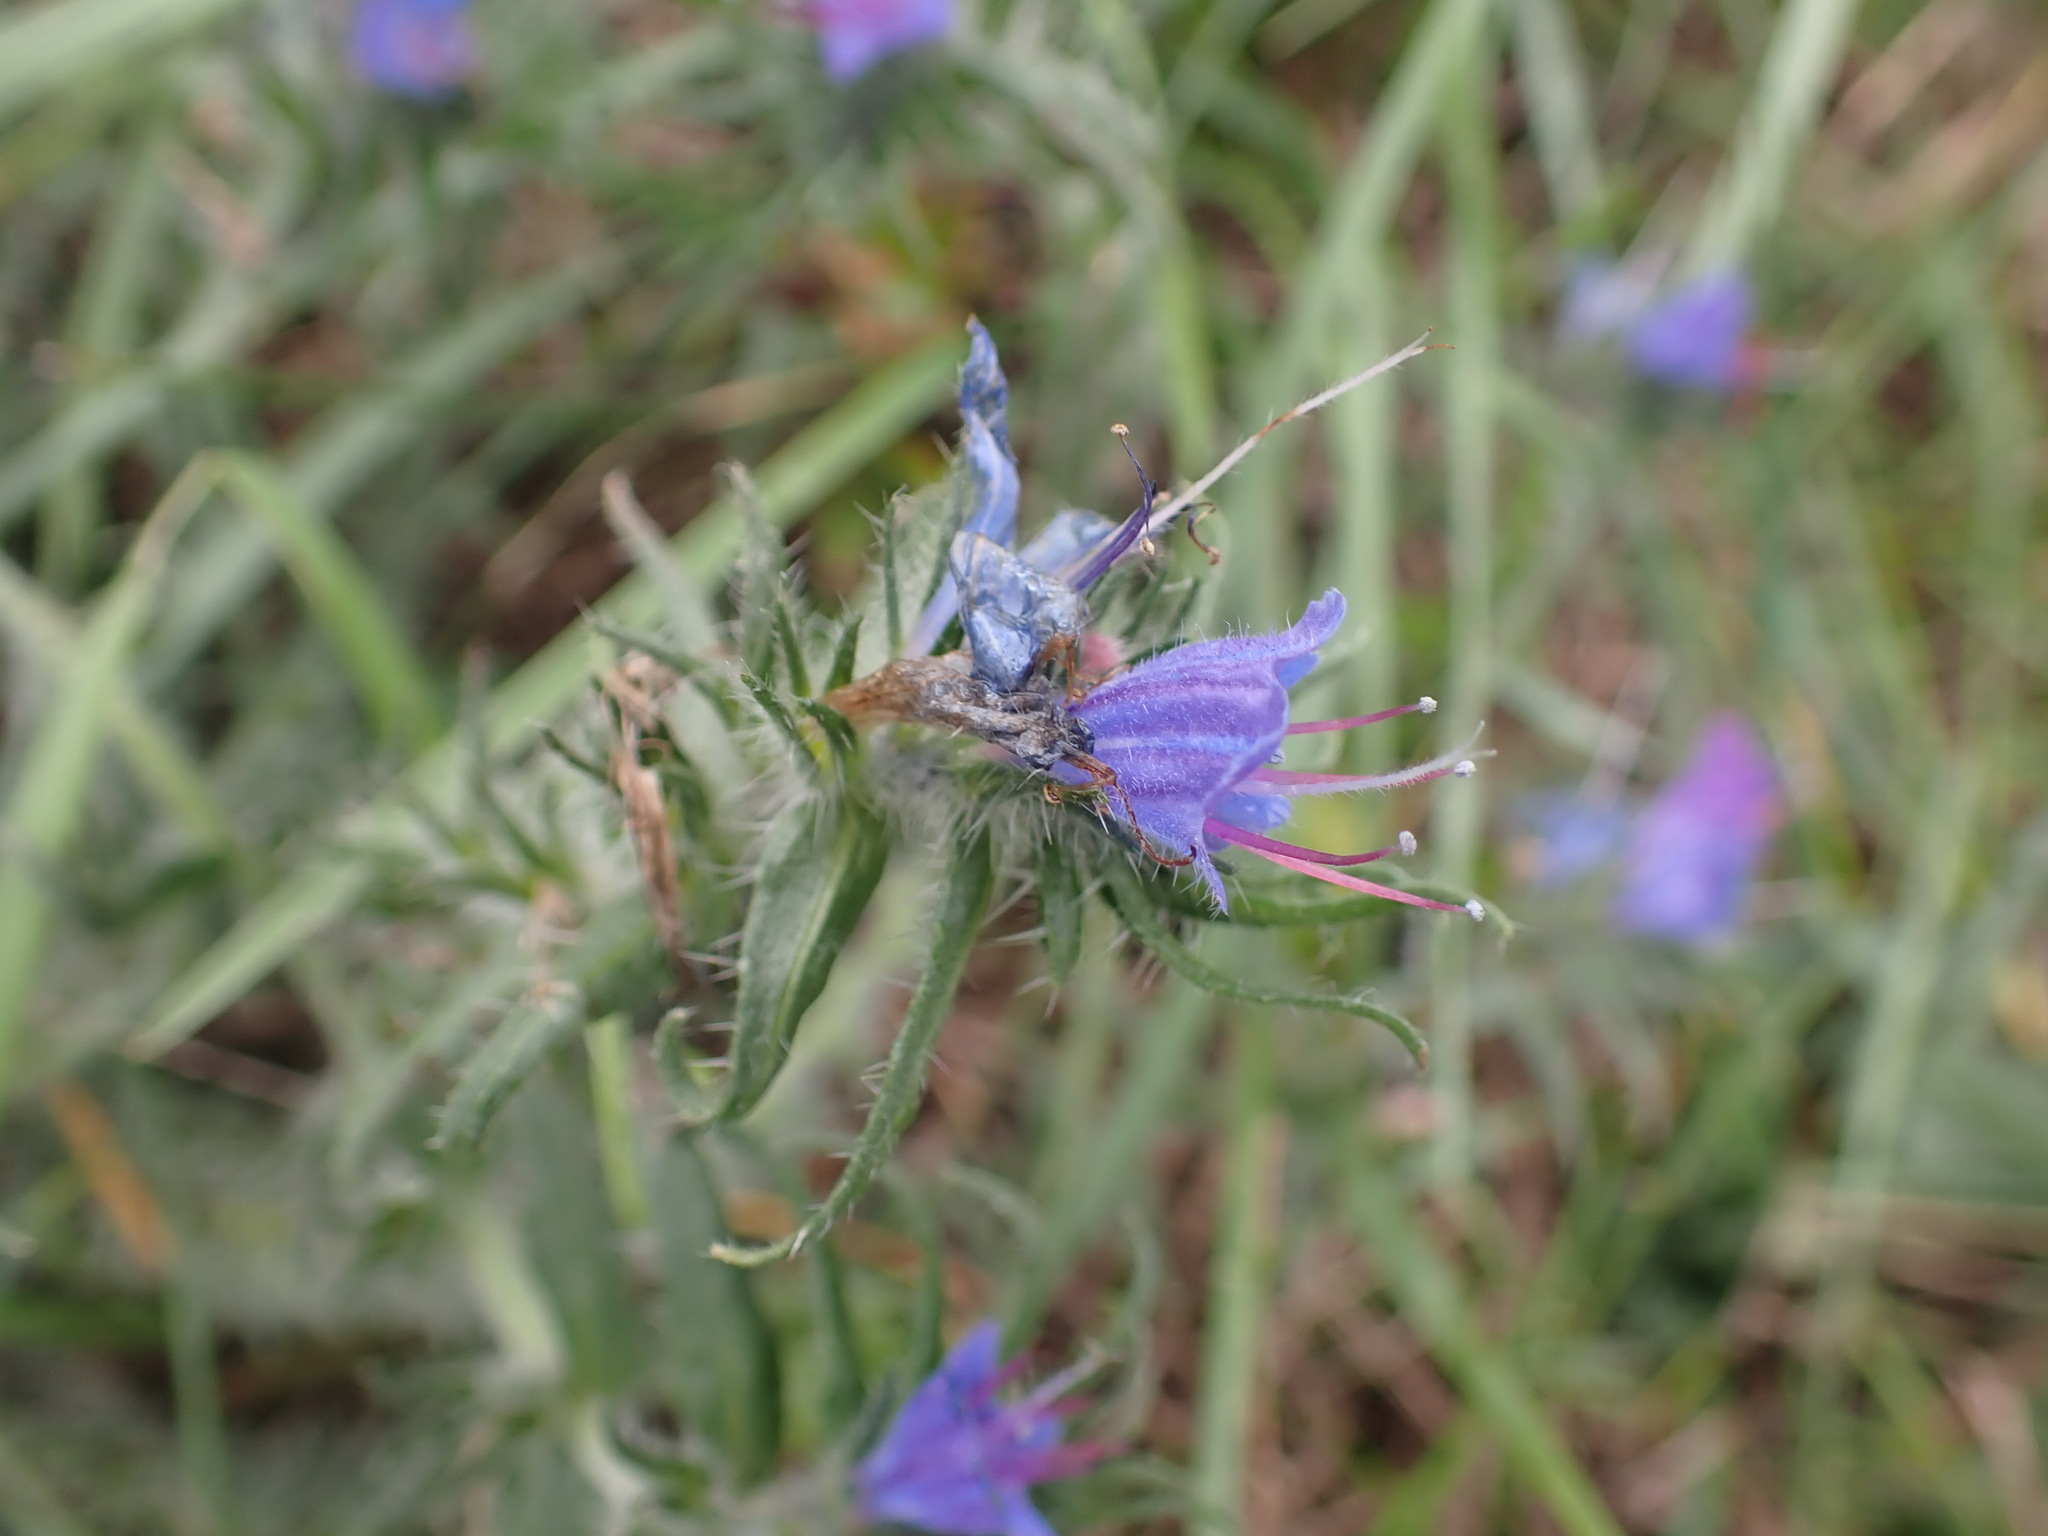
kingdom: Plantae
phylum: Tracheophyta
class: Magnoliopsida
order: Boraginales
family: Boraginaceae
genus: Echium
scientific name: Echium vulgare
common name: Common viper's bugloss
